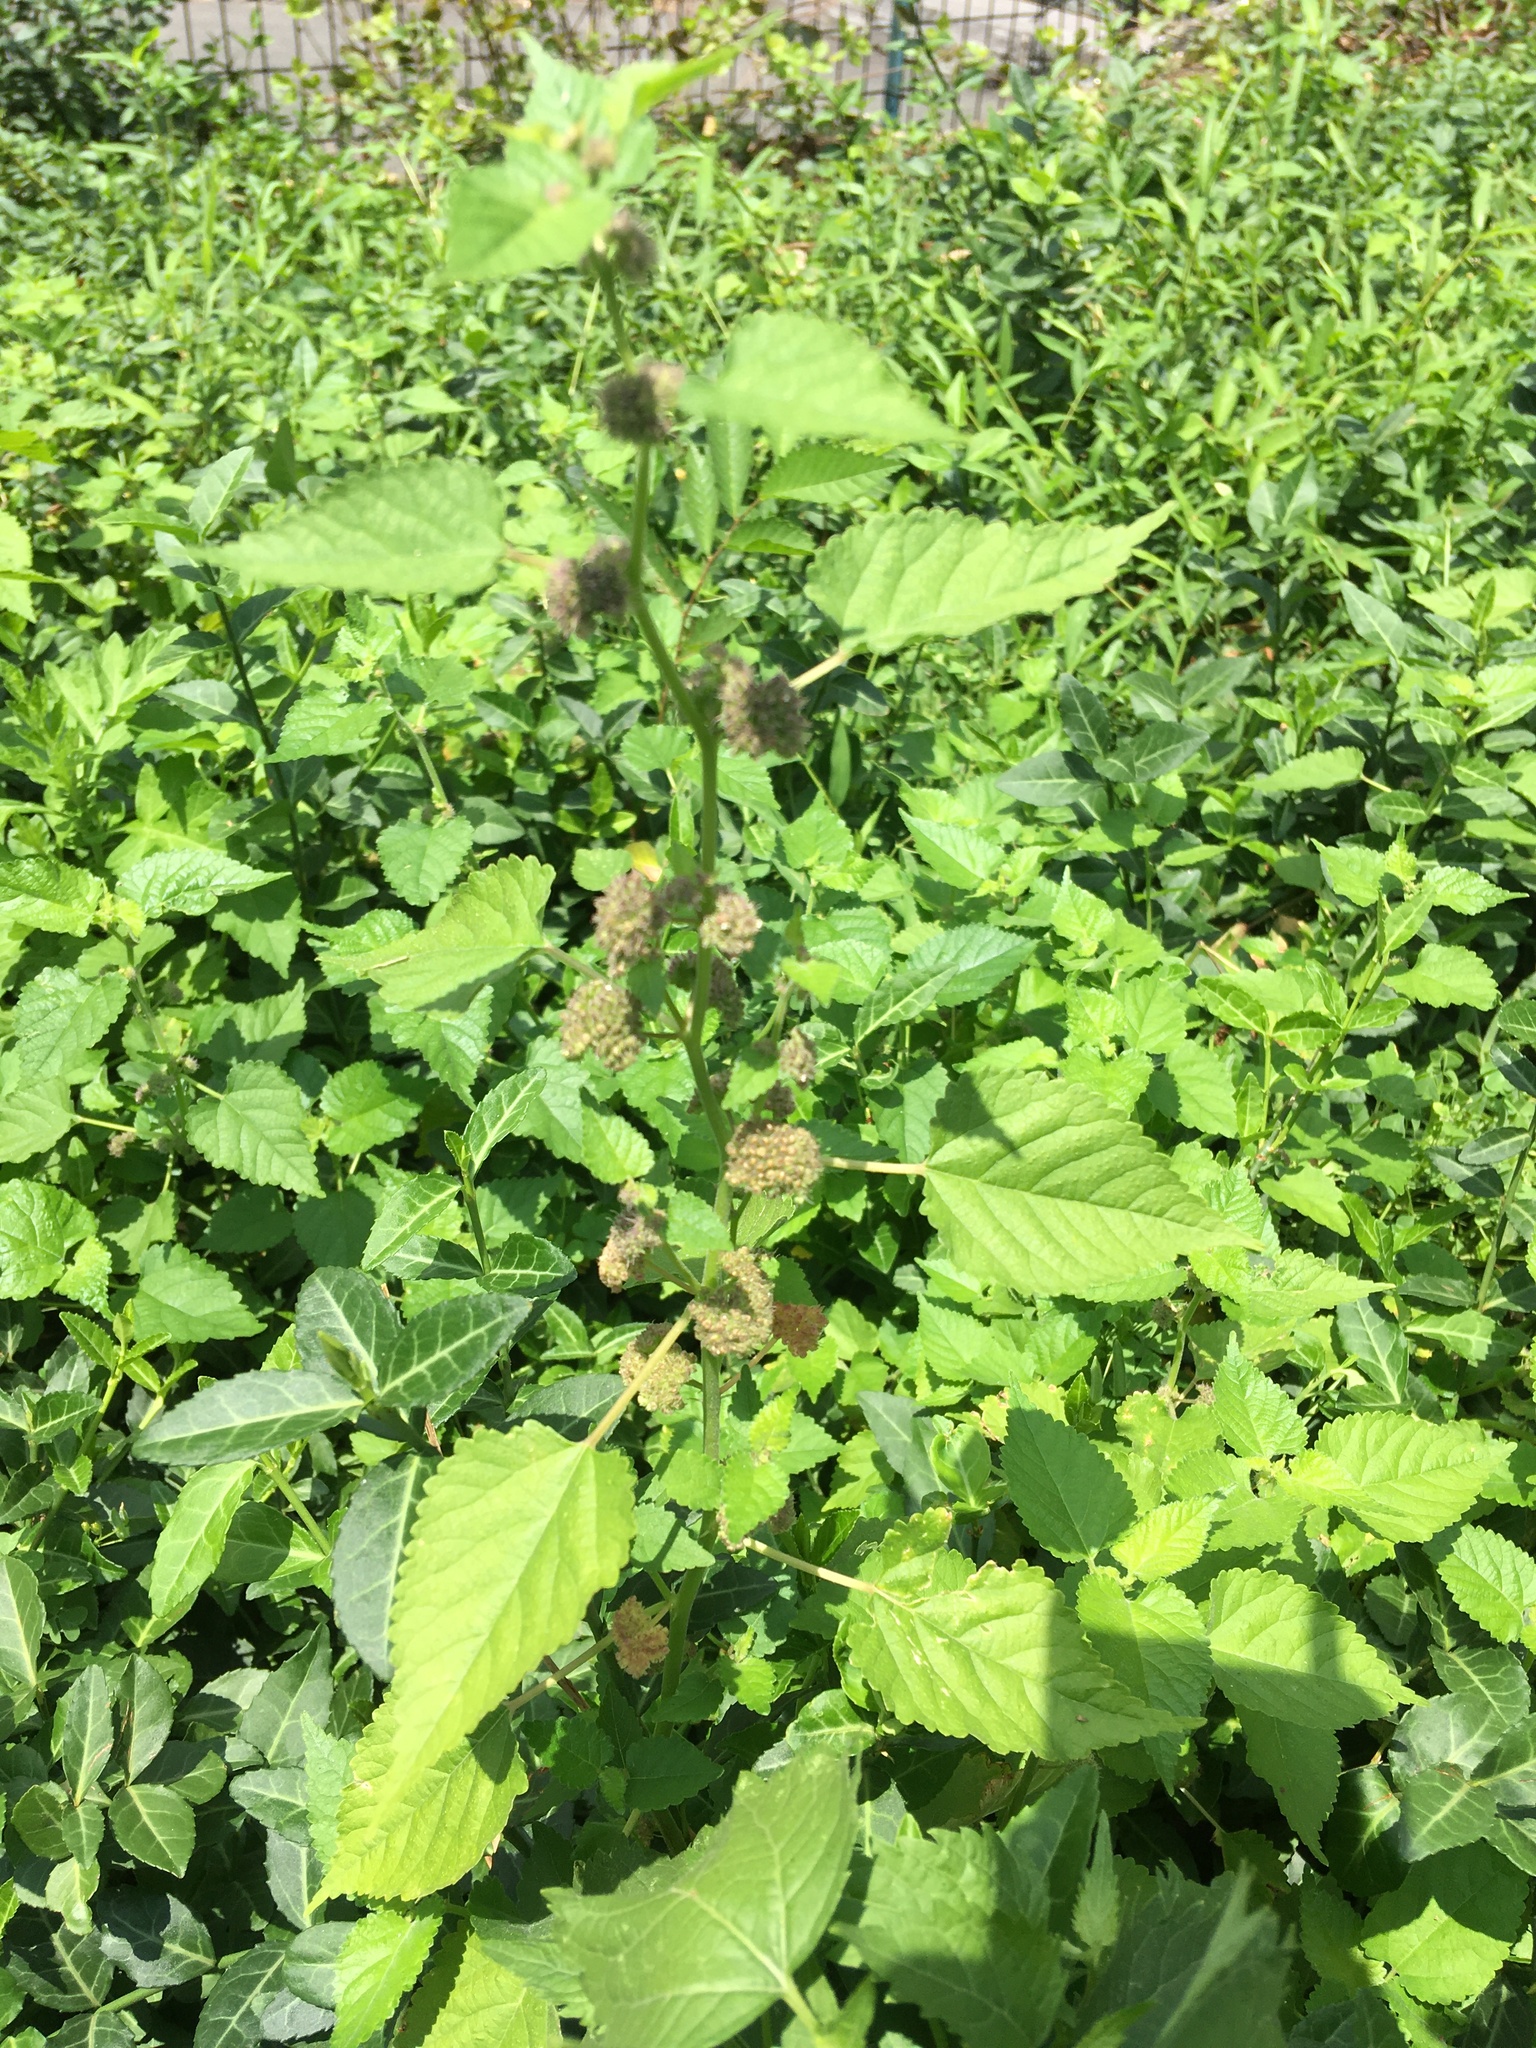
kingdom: Plantae
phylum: Tracheophyta
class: Magnoliopsida
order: Rosales
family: Moraceae
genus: Fatoua
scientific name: Fatoua villosa
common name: Hairy crabweed
